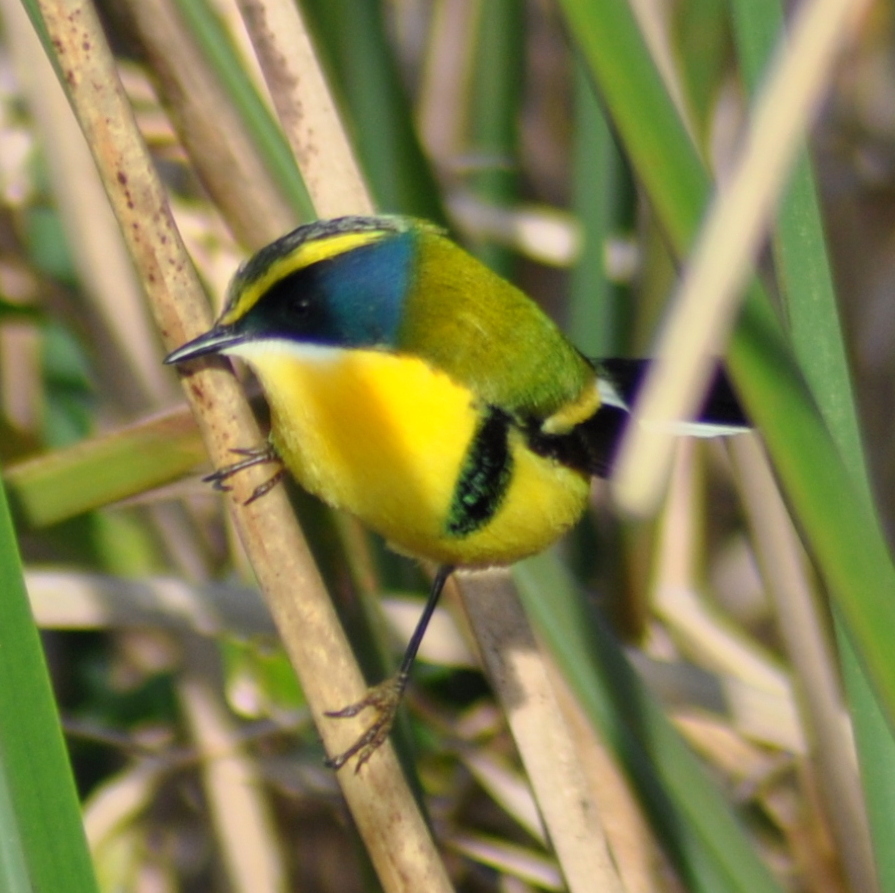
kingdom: Animalia
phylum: Chordata
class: Aves
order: Passeriformes
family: Tyrannidae
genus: Tachuris
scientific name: Tachuris rubrigastra
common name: Many-colored rush tyrant
